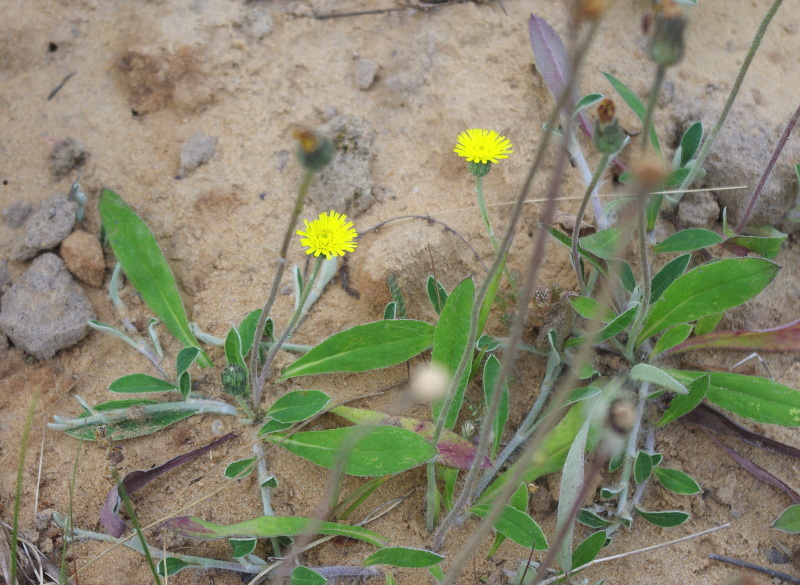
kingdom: Plantae
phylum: Tracheophyta
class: Magnoliopsida
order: Asterales
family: Asteraceae
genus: Pilosella
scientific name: Pilosella officinarum
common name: Mouse-ear hawkweed
